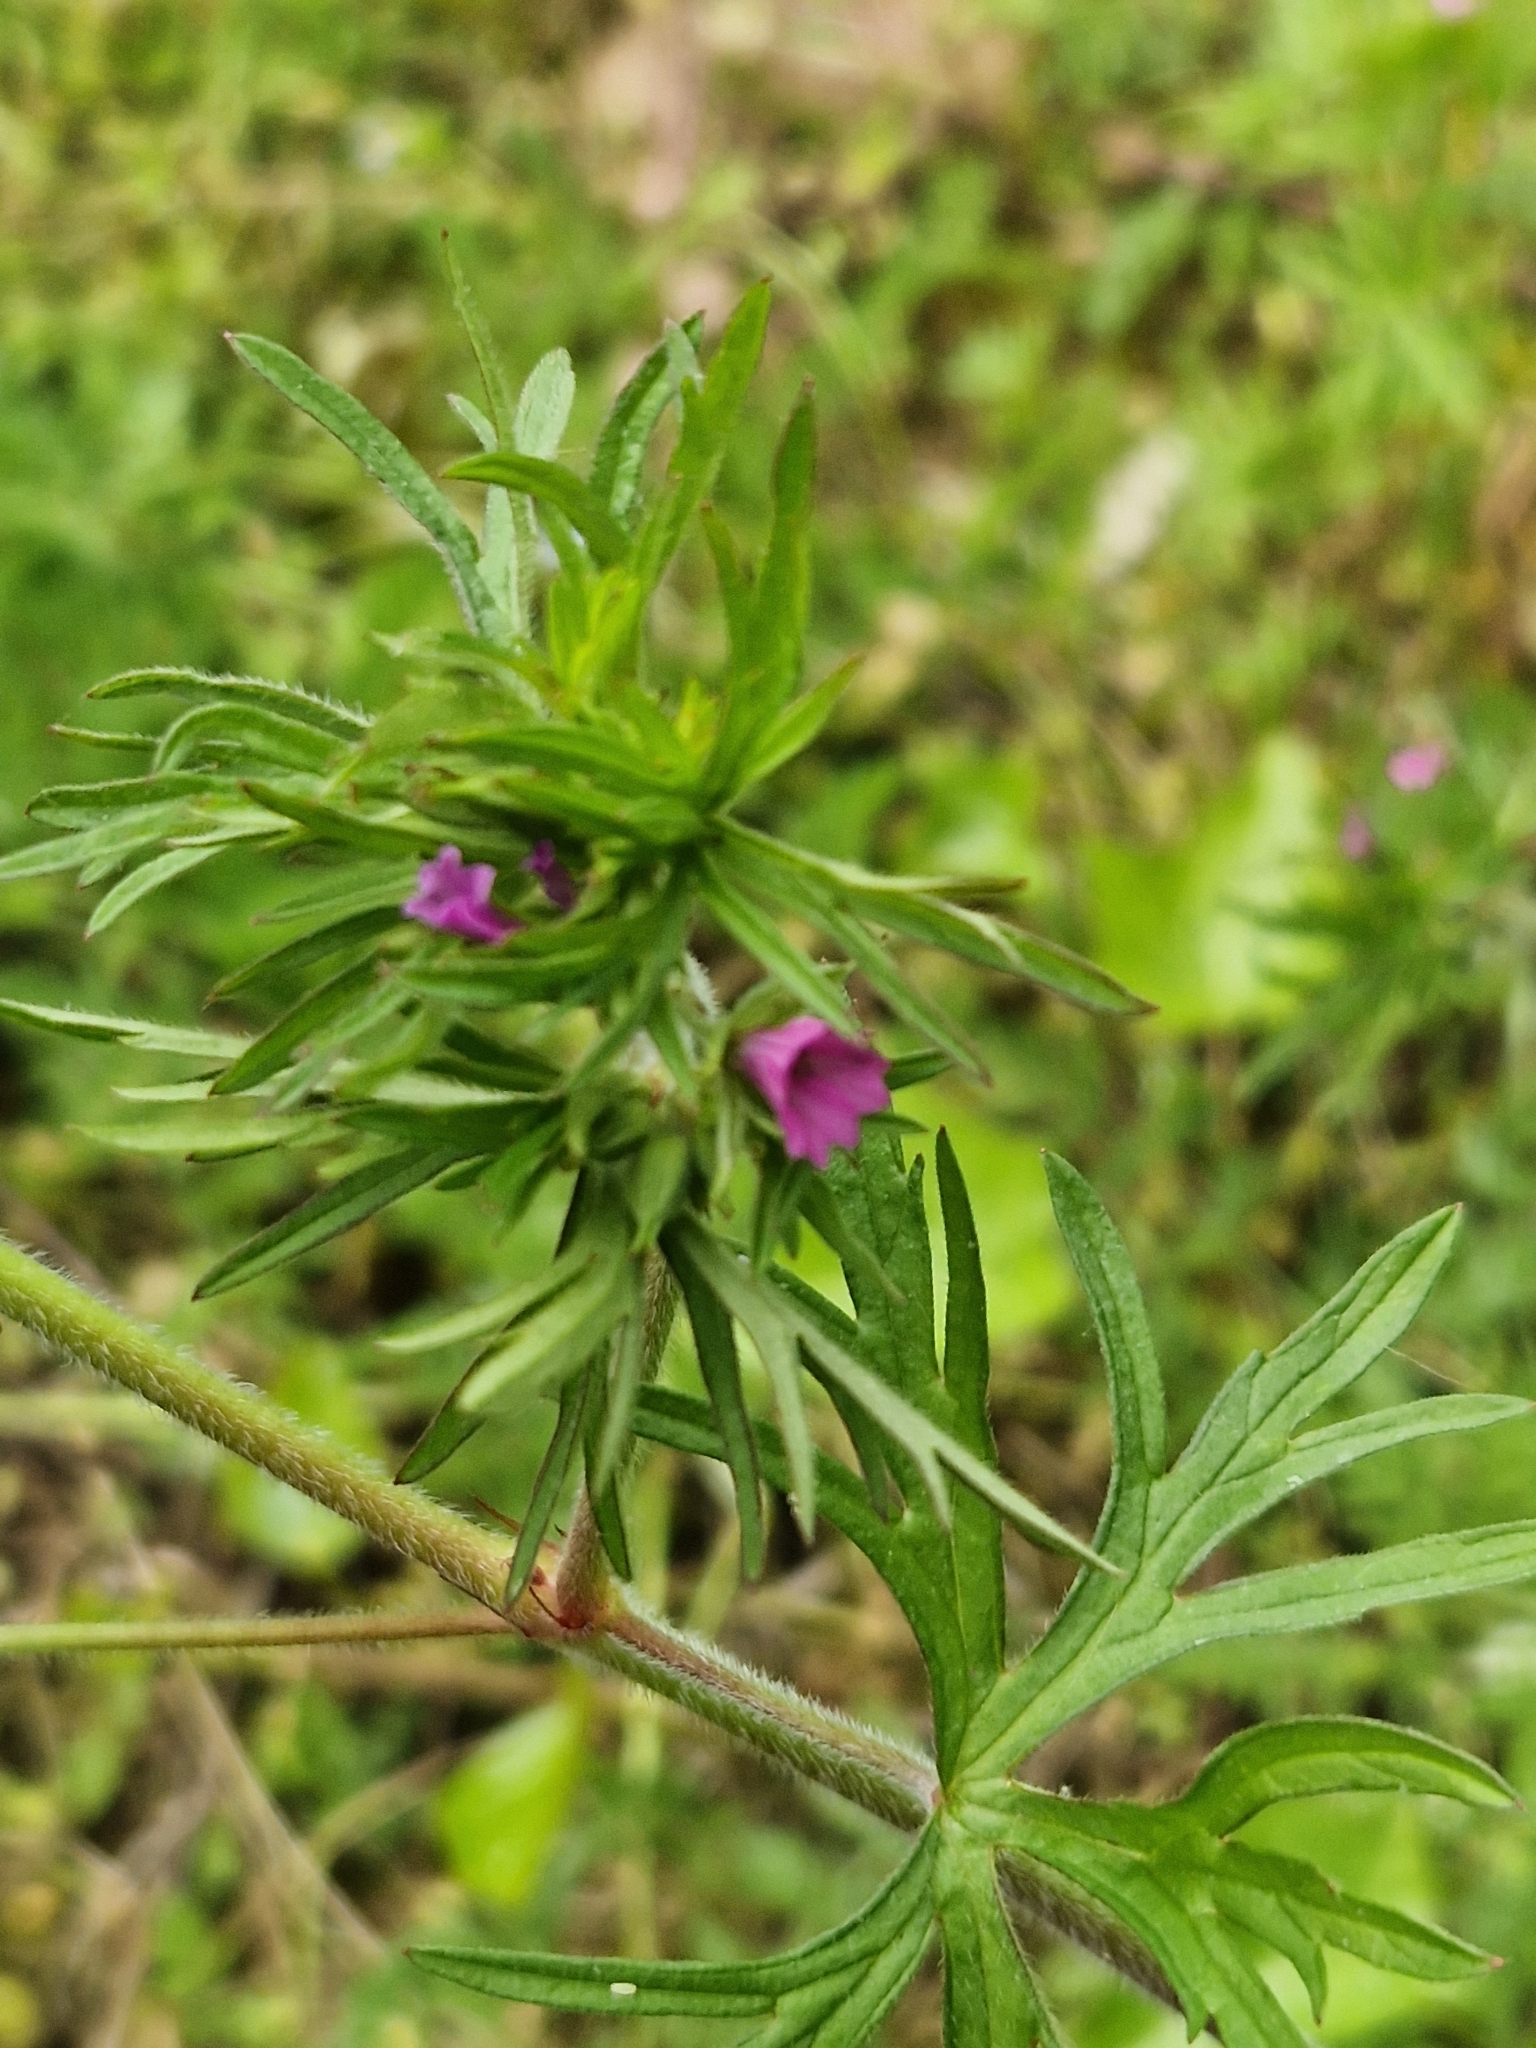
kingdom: Plantae
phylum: Tracheophyta
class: Magnoliopsida
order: Geraniales
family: Geraniaceae
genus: Geranium
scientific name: Geranium dissectum
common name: Cut-leaved crane's-bill
